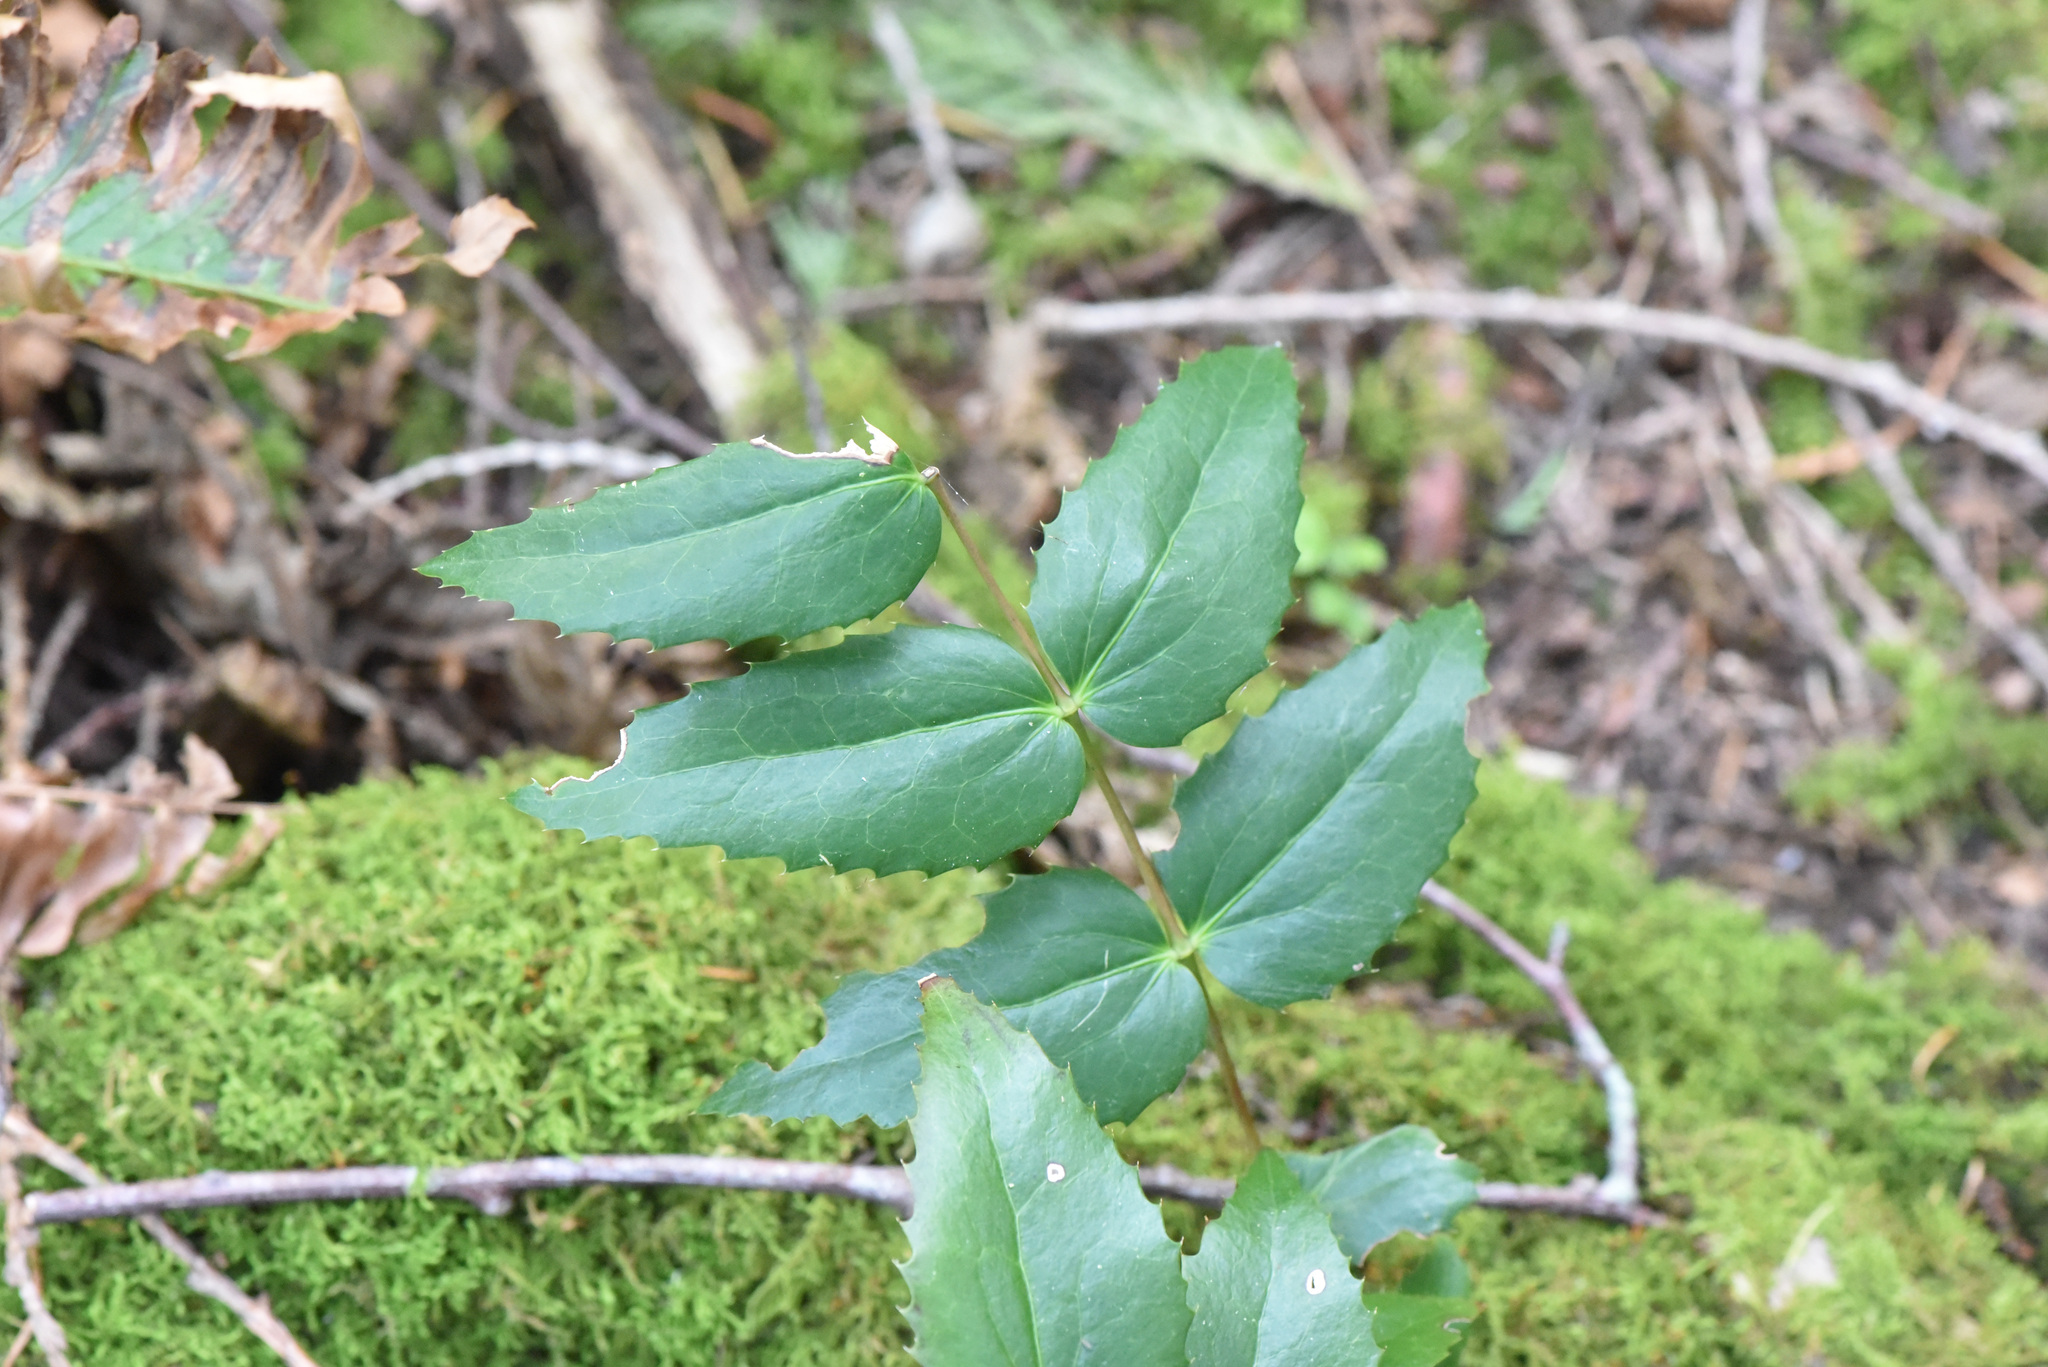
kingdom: Plantae
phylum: Tracheophyta
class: Magnoliopsida
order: Ranunculales
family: Berberidaceae
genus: Mahonia
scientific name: Mahonia nervosa
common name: Cascade oregon-grape
